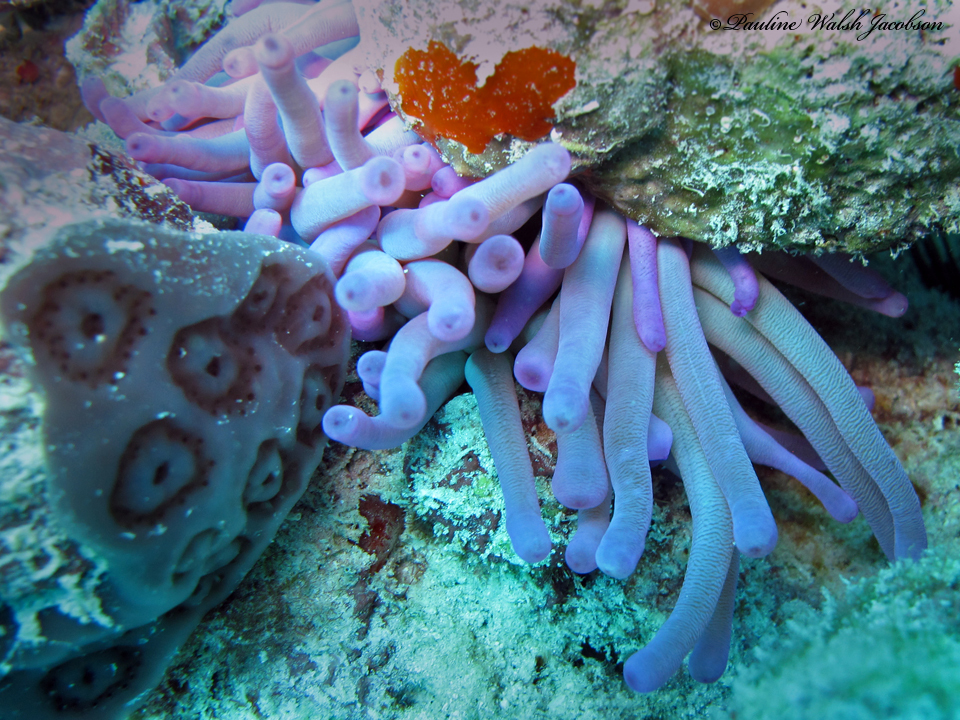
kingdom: Animalia
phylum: Cnidaria
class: Anthozoa
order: Actiniaria
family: Actiniidae
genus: Condylactis
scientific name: Condylactis gigantea
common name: Giant caribbean anemone
